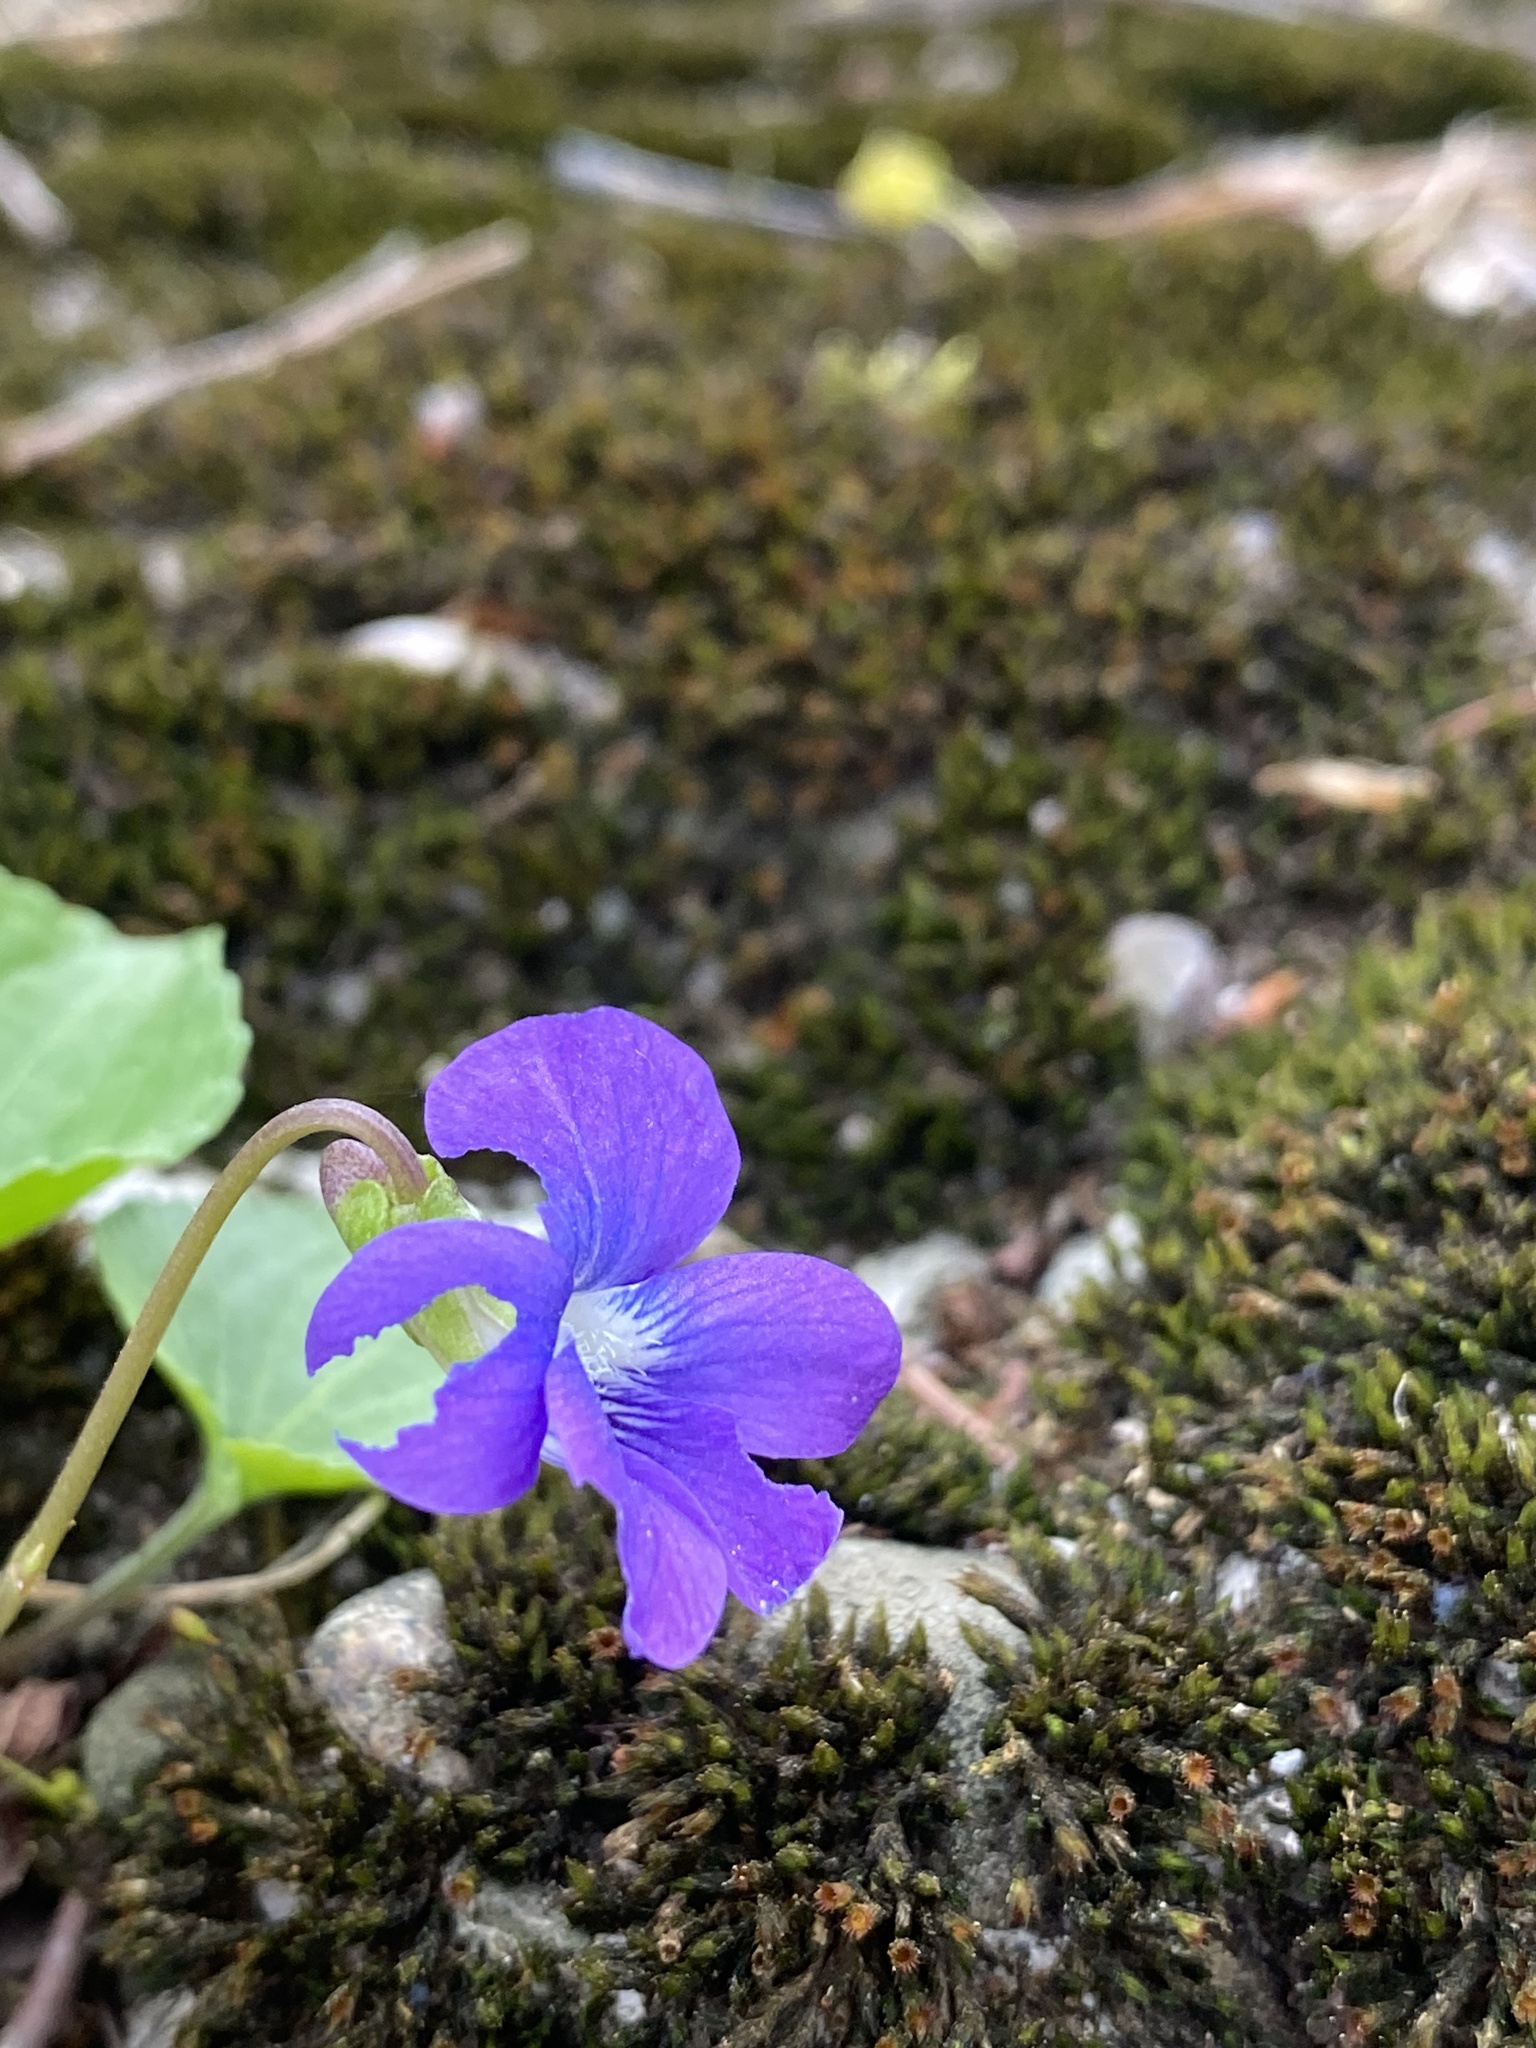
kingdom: Plantae
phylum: Tracheophyta
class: Magnoliopsida
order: Malpighiales
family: Violaceae
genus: Viola
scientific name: Viola sororia
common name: Dooryard violet
